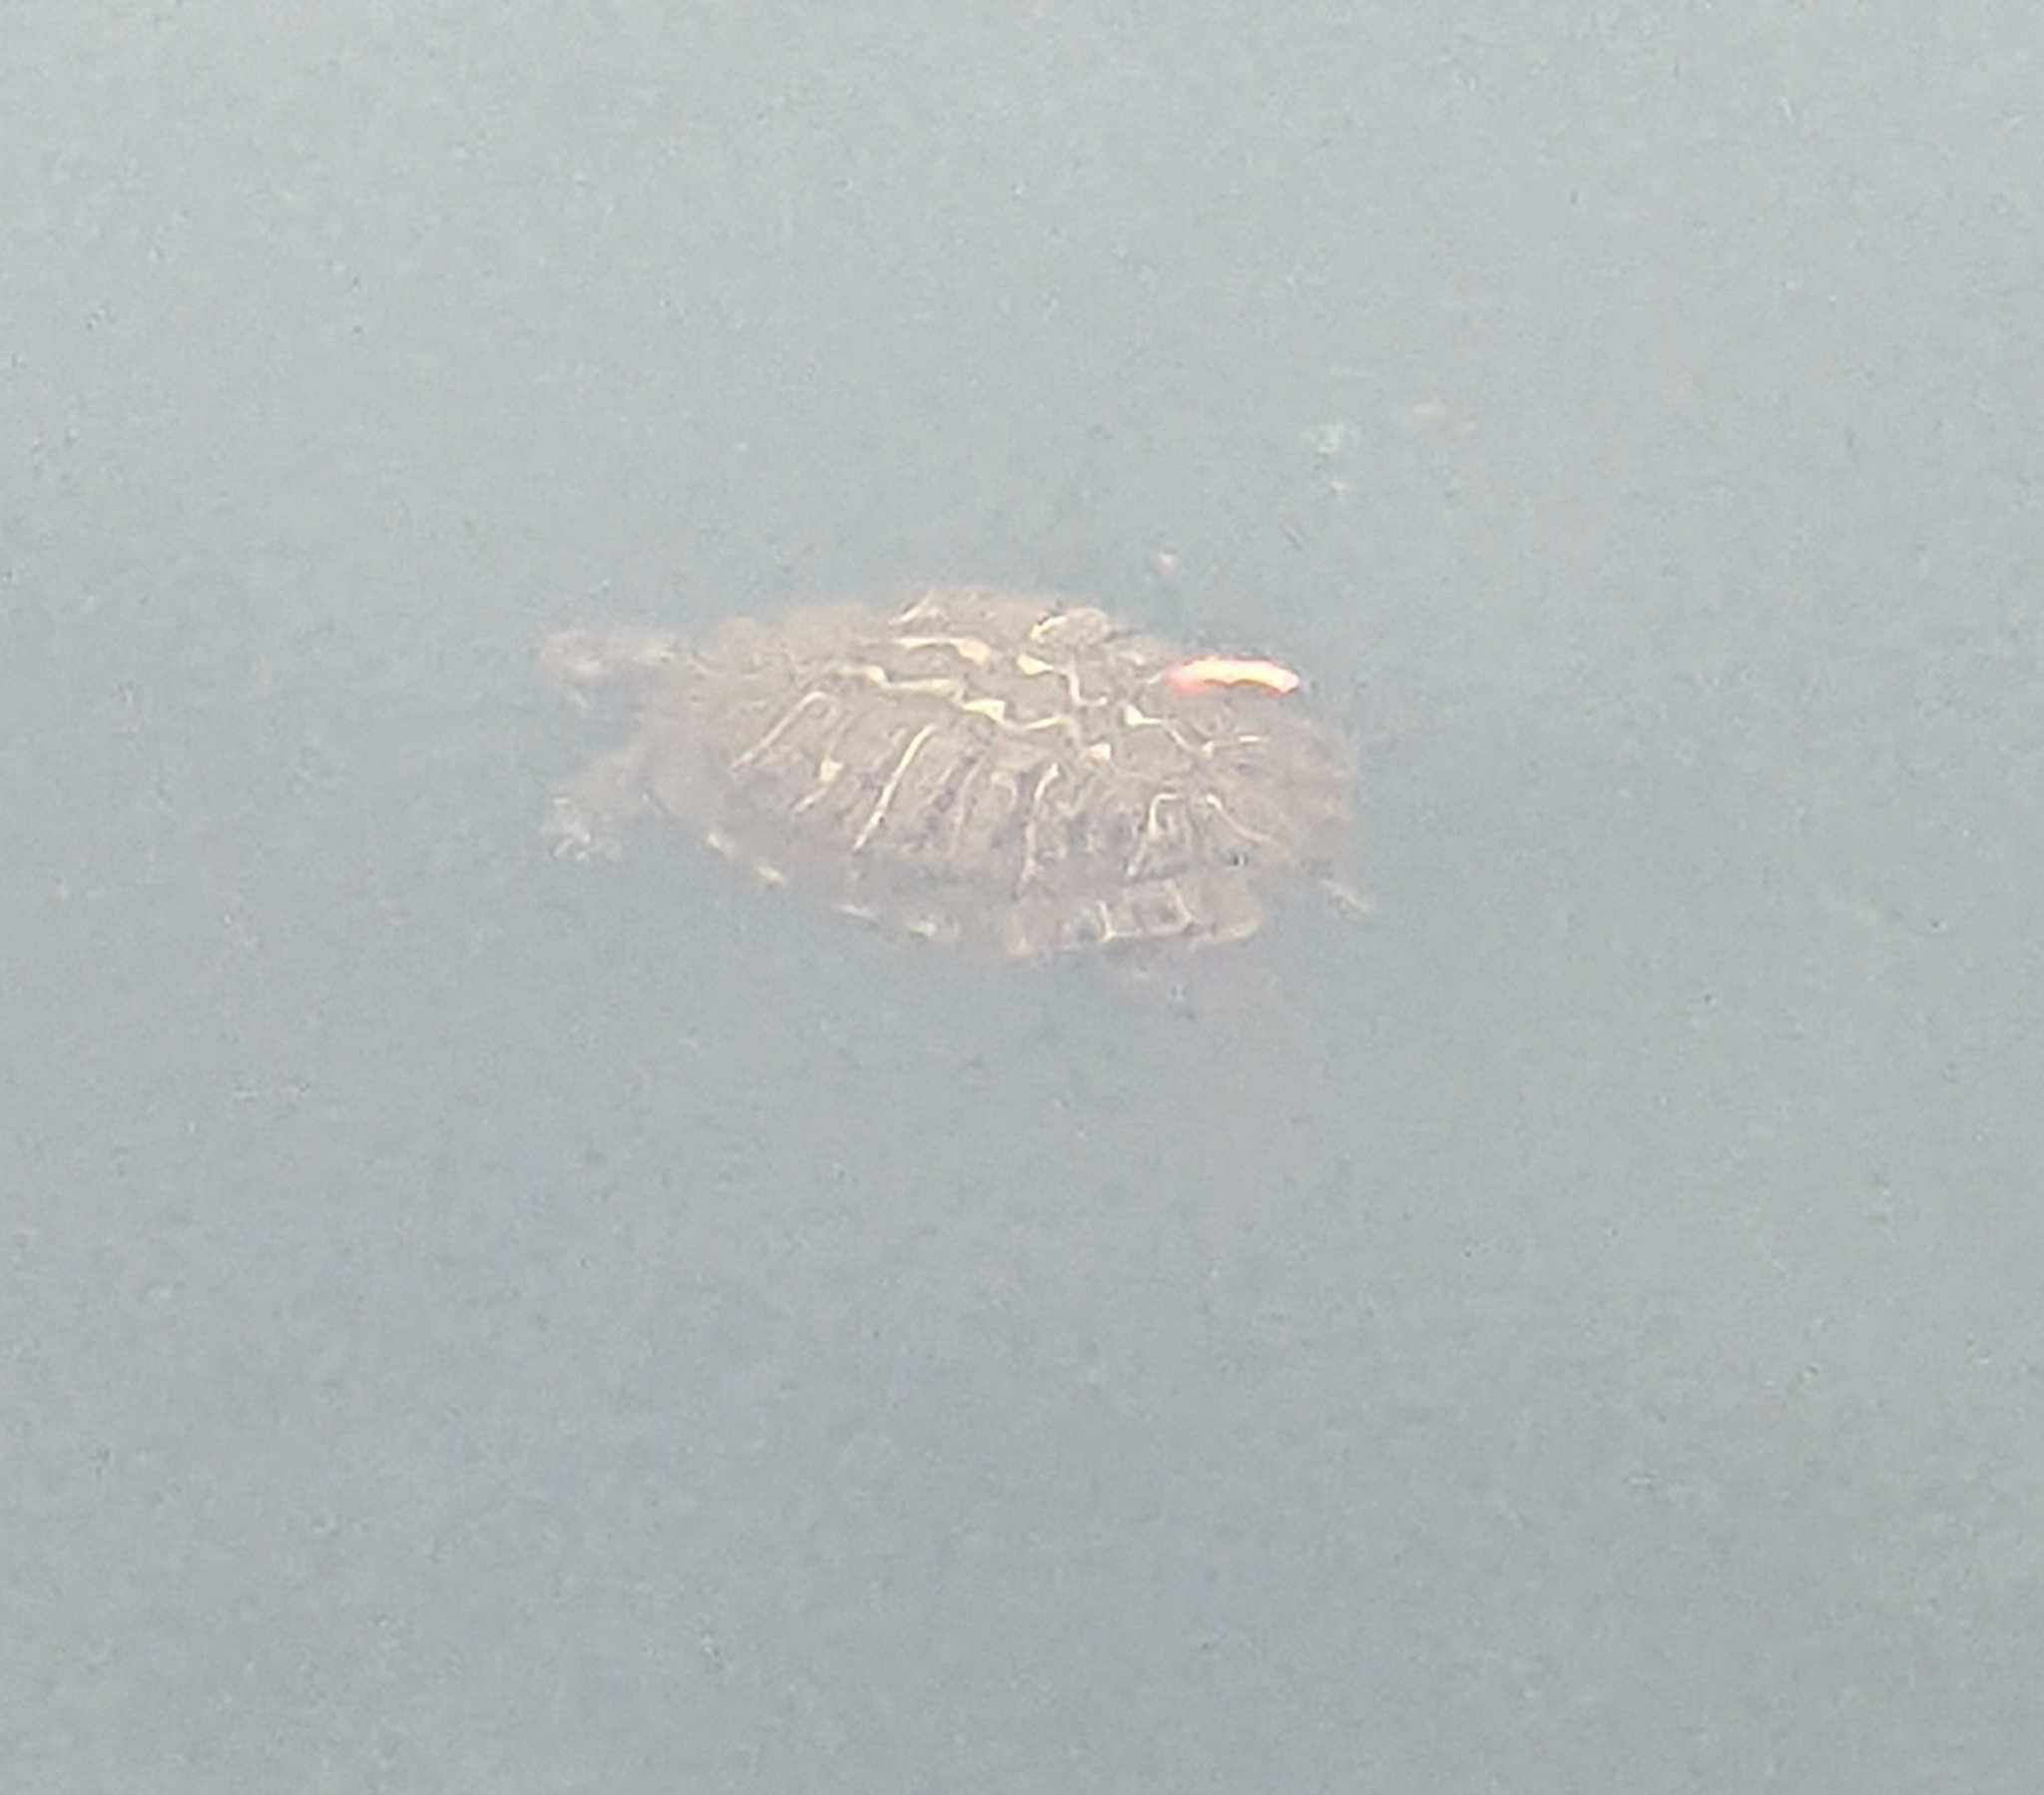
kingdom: Animalia
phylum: Chordata
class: Testudines
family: Emydidae
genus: Trachemys
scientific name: Trachemys scripta
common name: Slider
